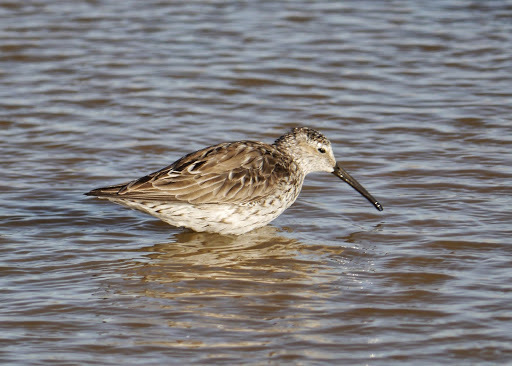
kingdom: Animalia
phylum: Chordata
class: Aves
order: Charadriiformes
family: Scolopacidae
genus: Calidris
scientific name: Calidris himantopus
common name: Stilt sandpiper
